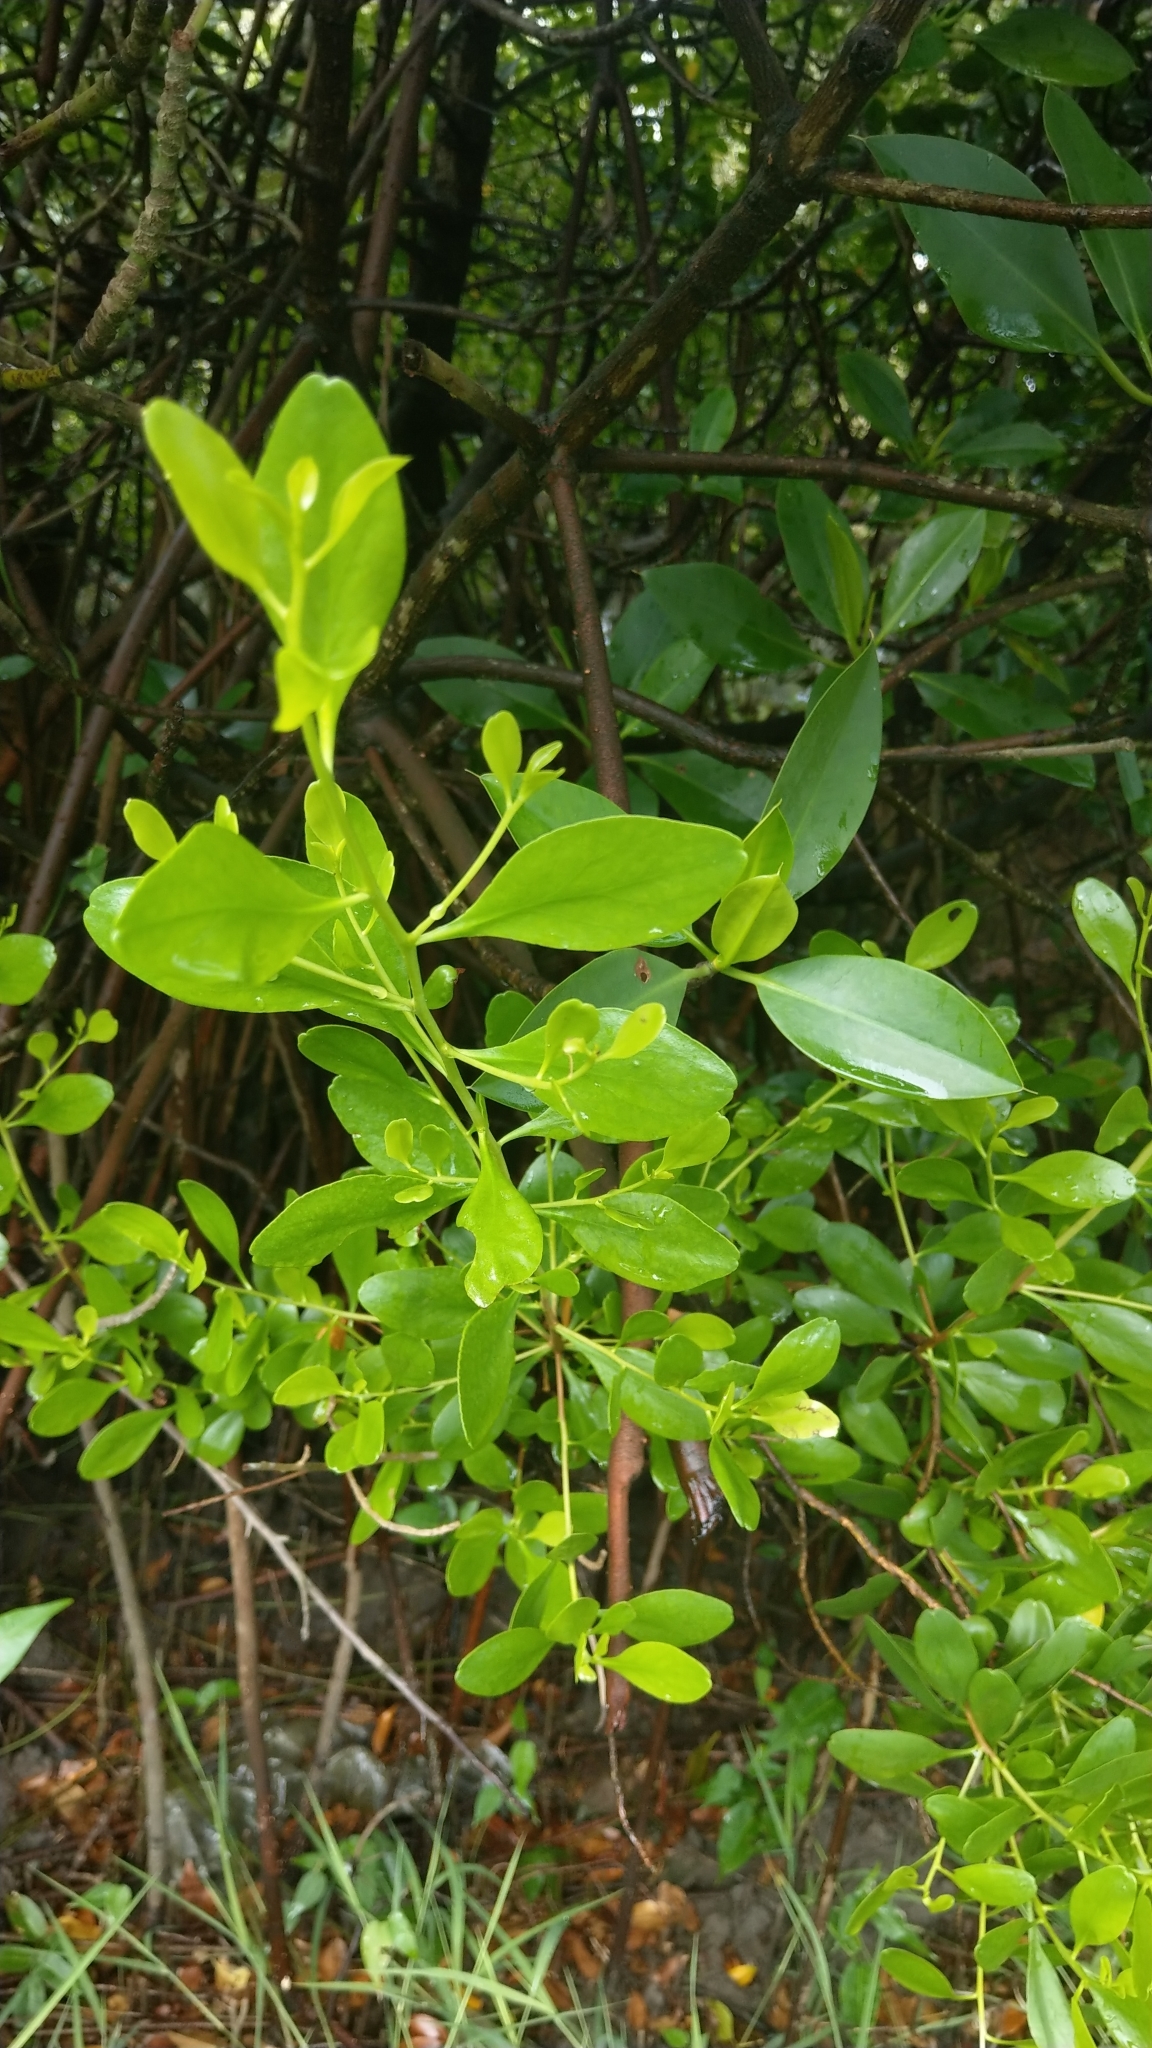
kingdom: Plantae
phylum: Tracheophyta
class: Magnoliopsida
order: Myrtales
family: Combretaceae
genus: Lumnitzera
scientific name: Lumnitzera racemosa
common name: White-flowered black mangrove
